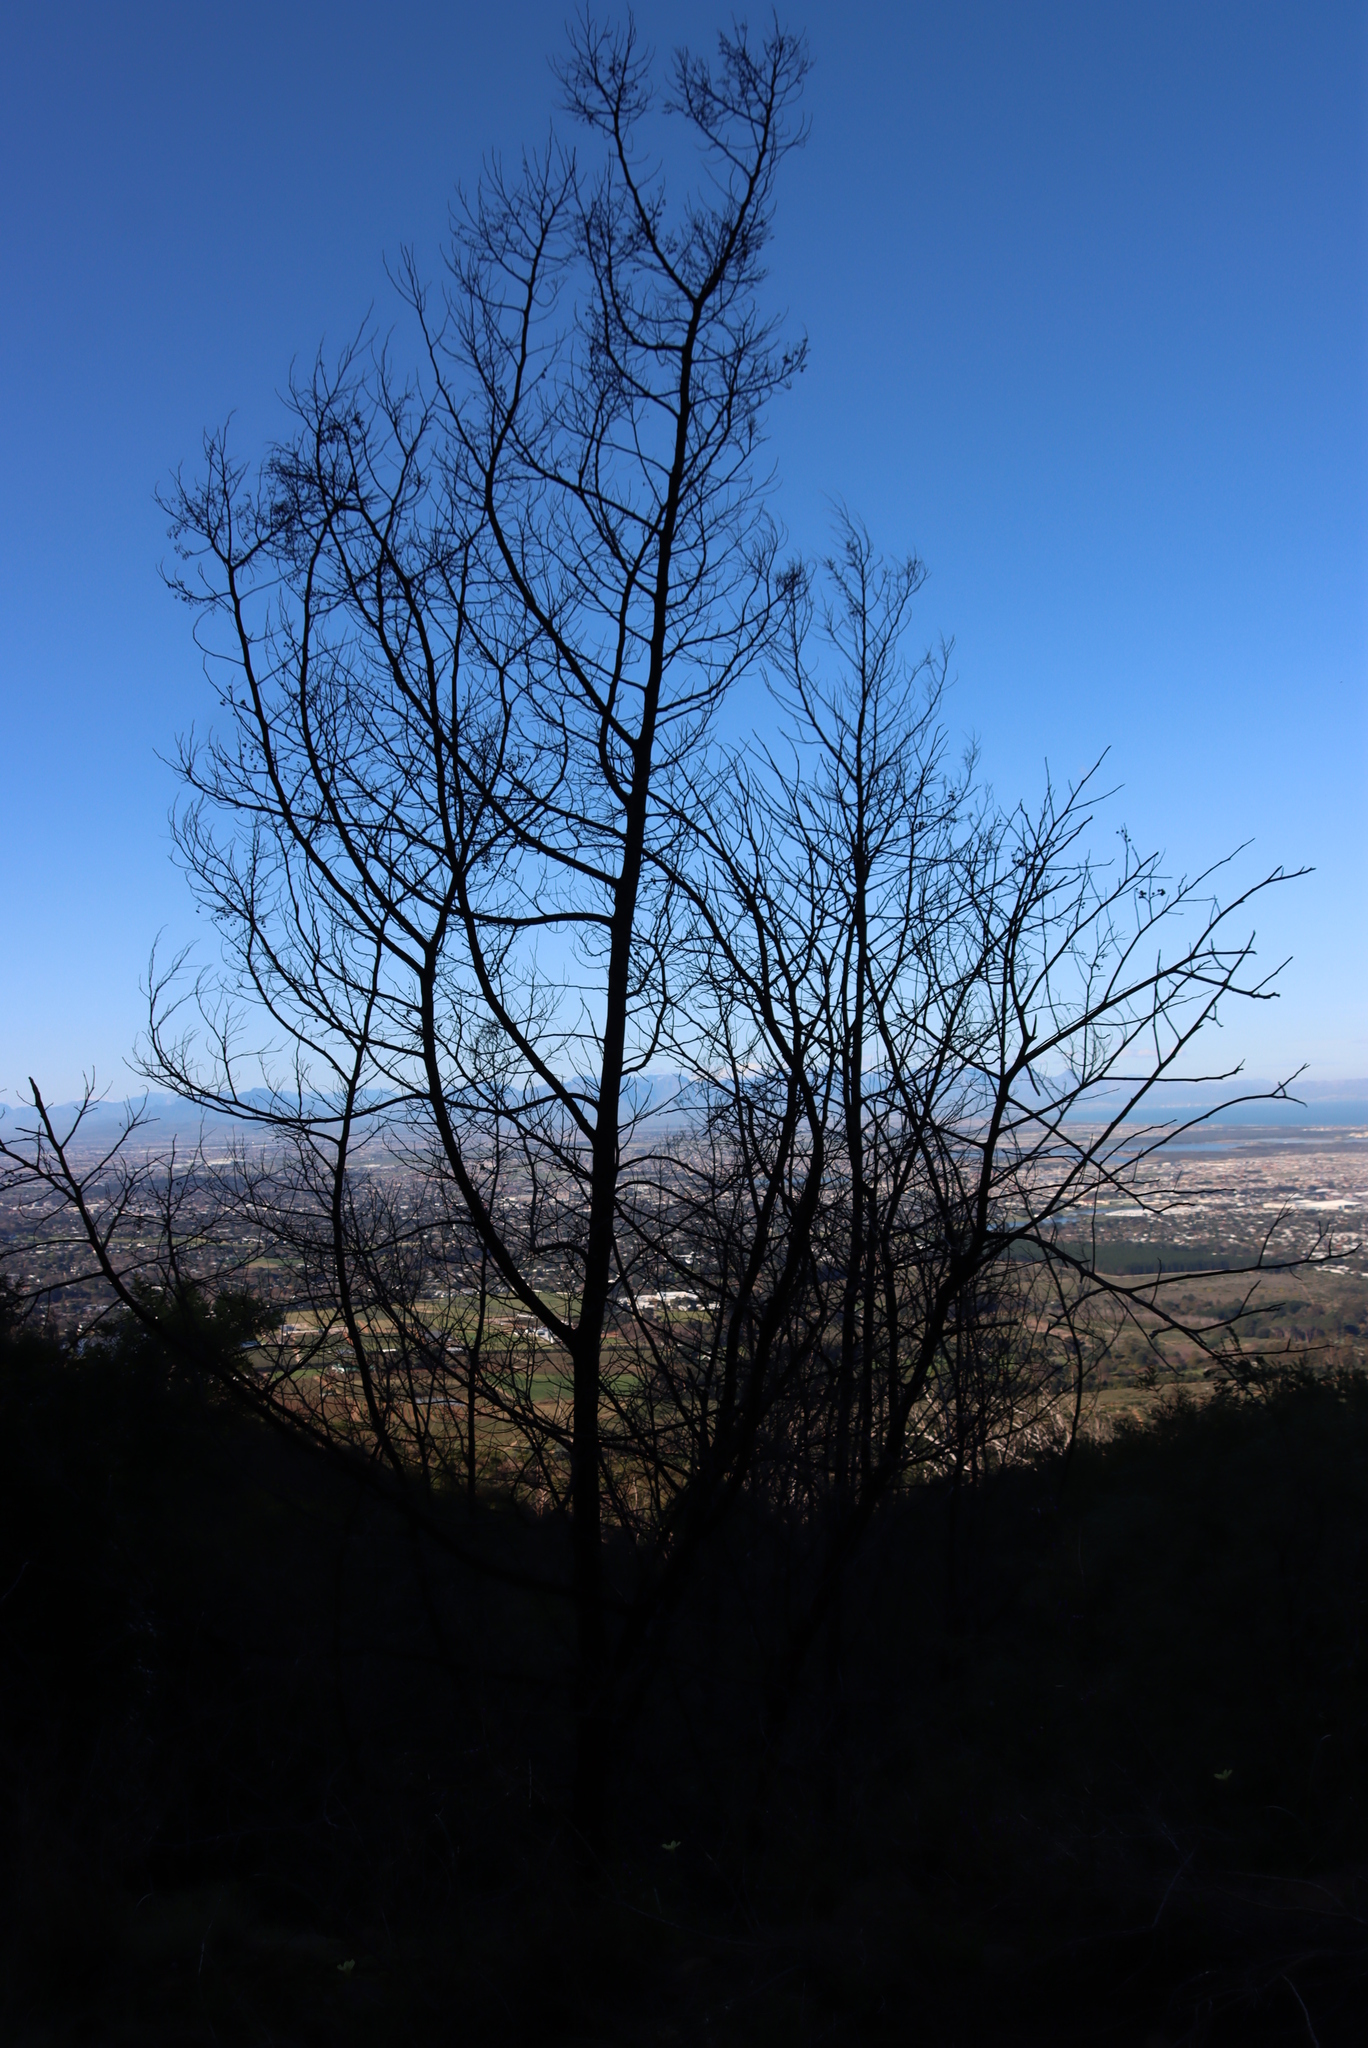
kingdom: Plantae
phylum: Tracheophyta
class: Magnoliopsida
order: Fabales
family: Fabaceae
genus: Acacia
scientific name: Acacia mearnsii
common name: Black wattle
